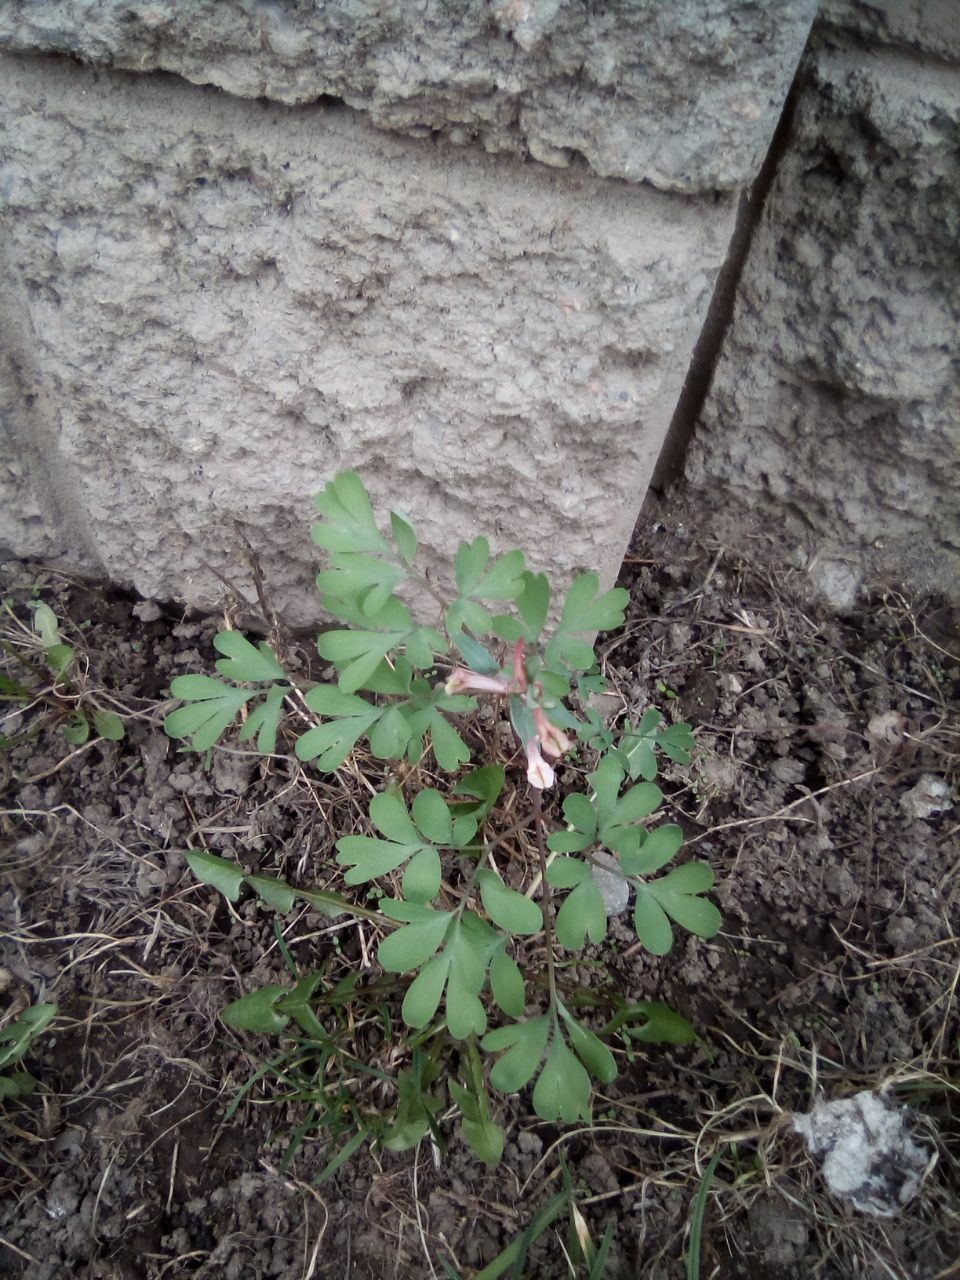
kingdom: Plantae
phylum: Tracheophyta
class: Magnoliopsida
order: Ranunculales
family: Papaveraceae
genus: Corydalis
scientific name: Corydalis glaucescens
